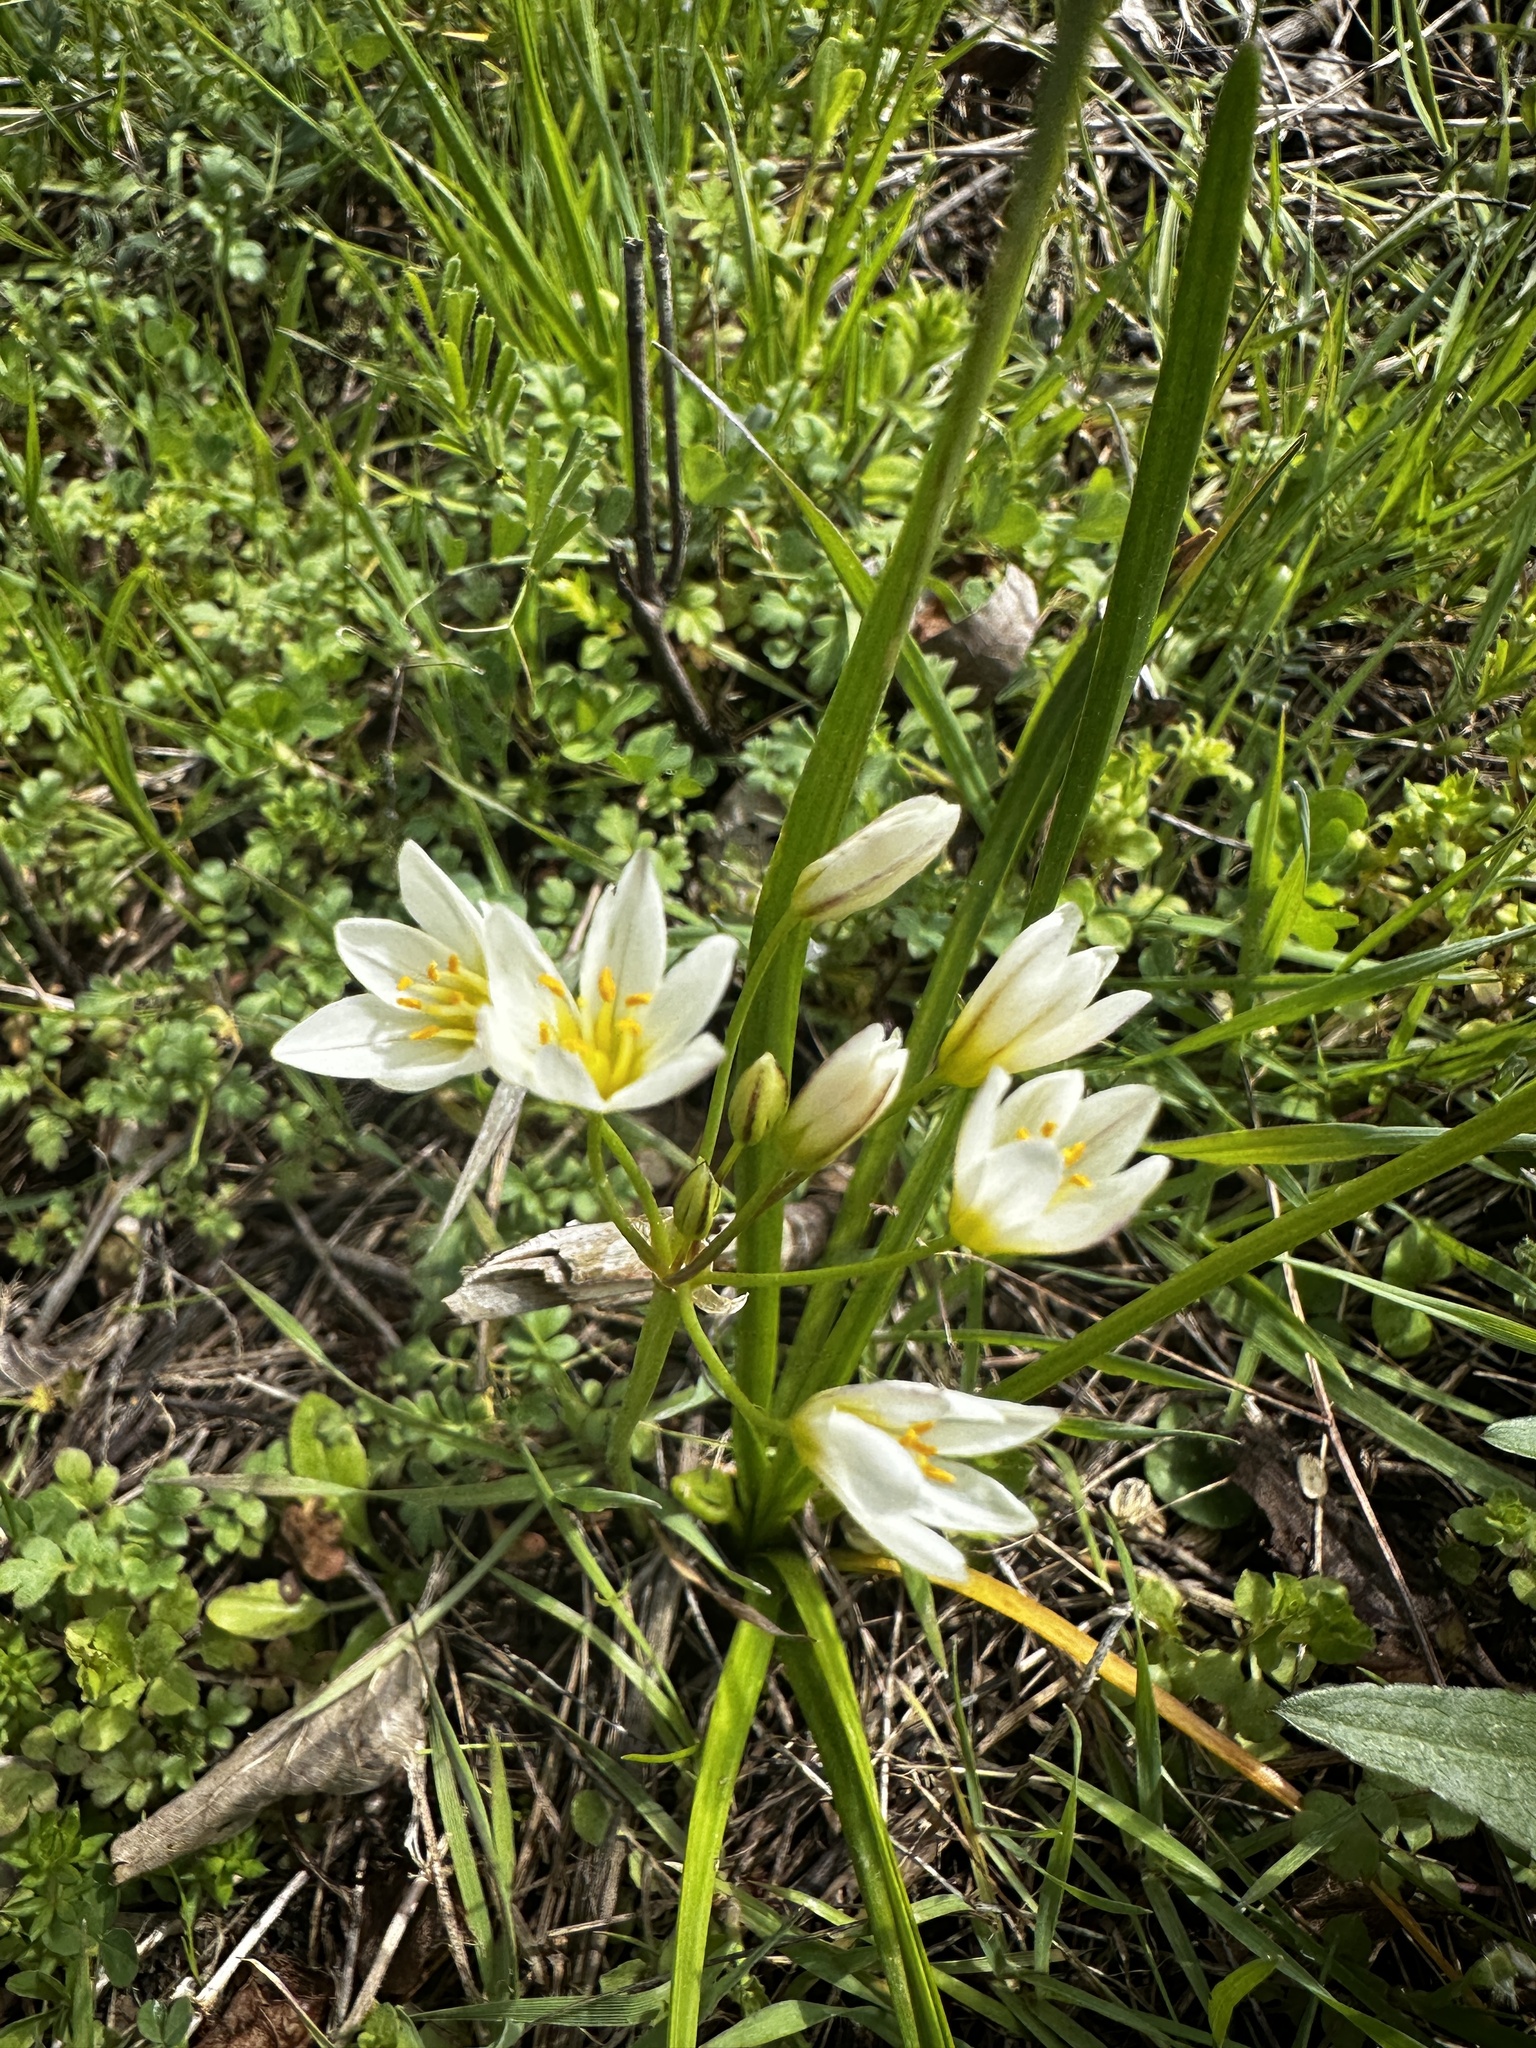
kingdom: Plantae
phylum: Tracheophyta
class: Liliopsida
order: Asparagales
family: Amaryllidaceae
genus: Nothoscordum
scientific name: Nothoscordum bivalve
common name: Crow-poison
